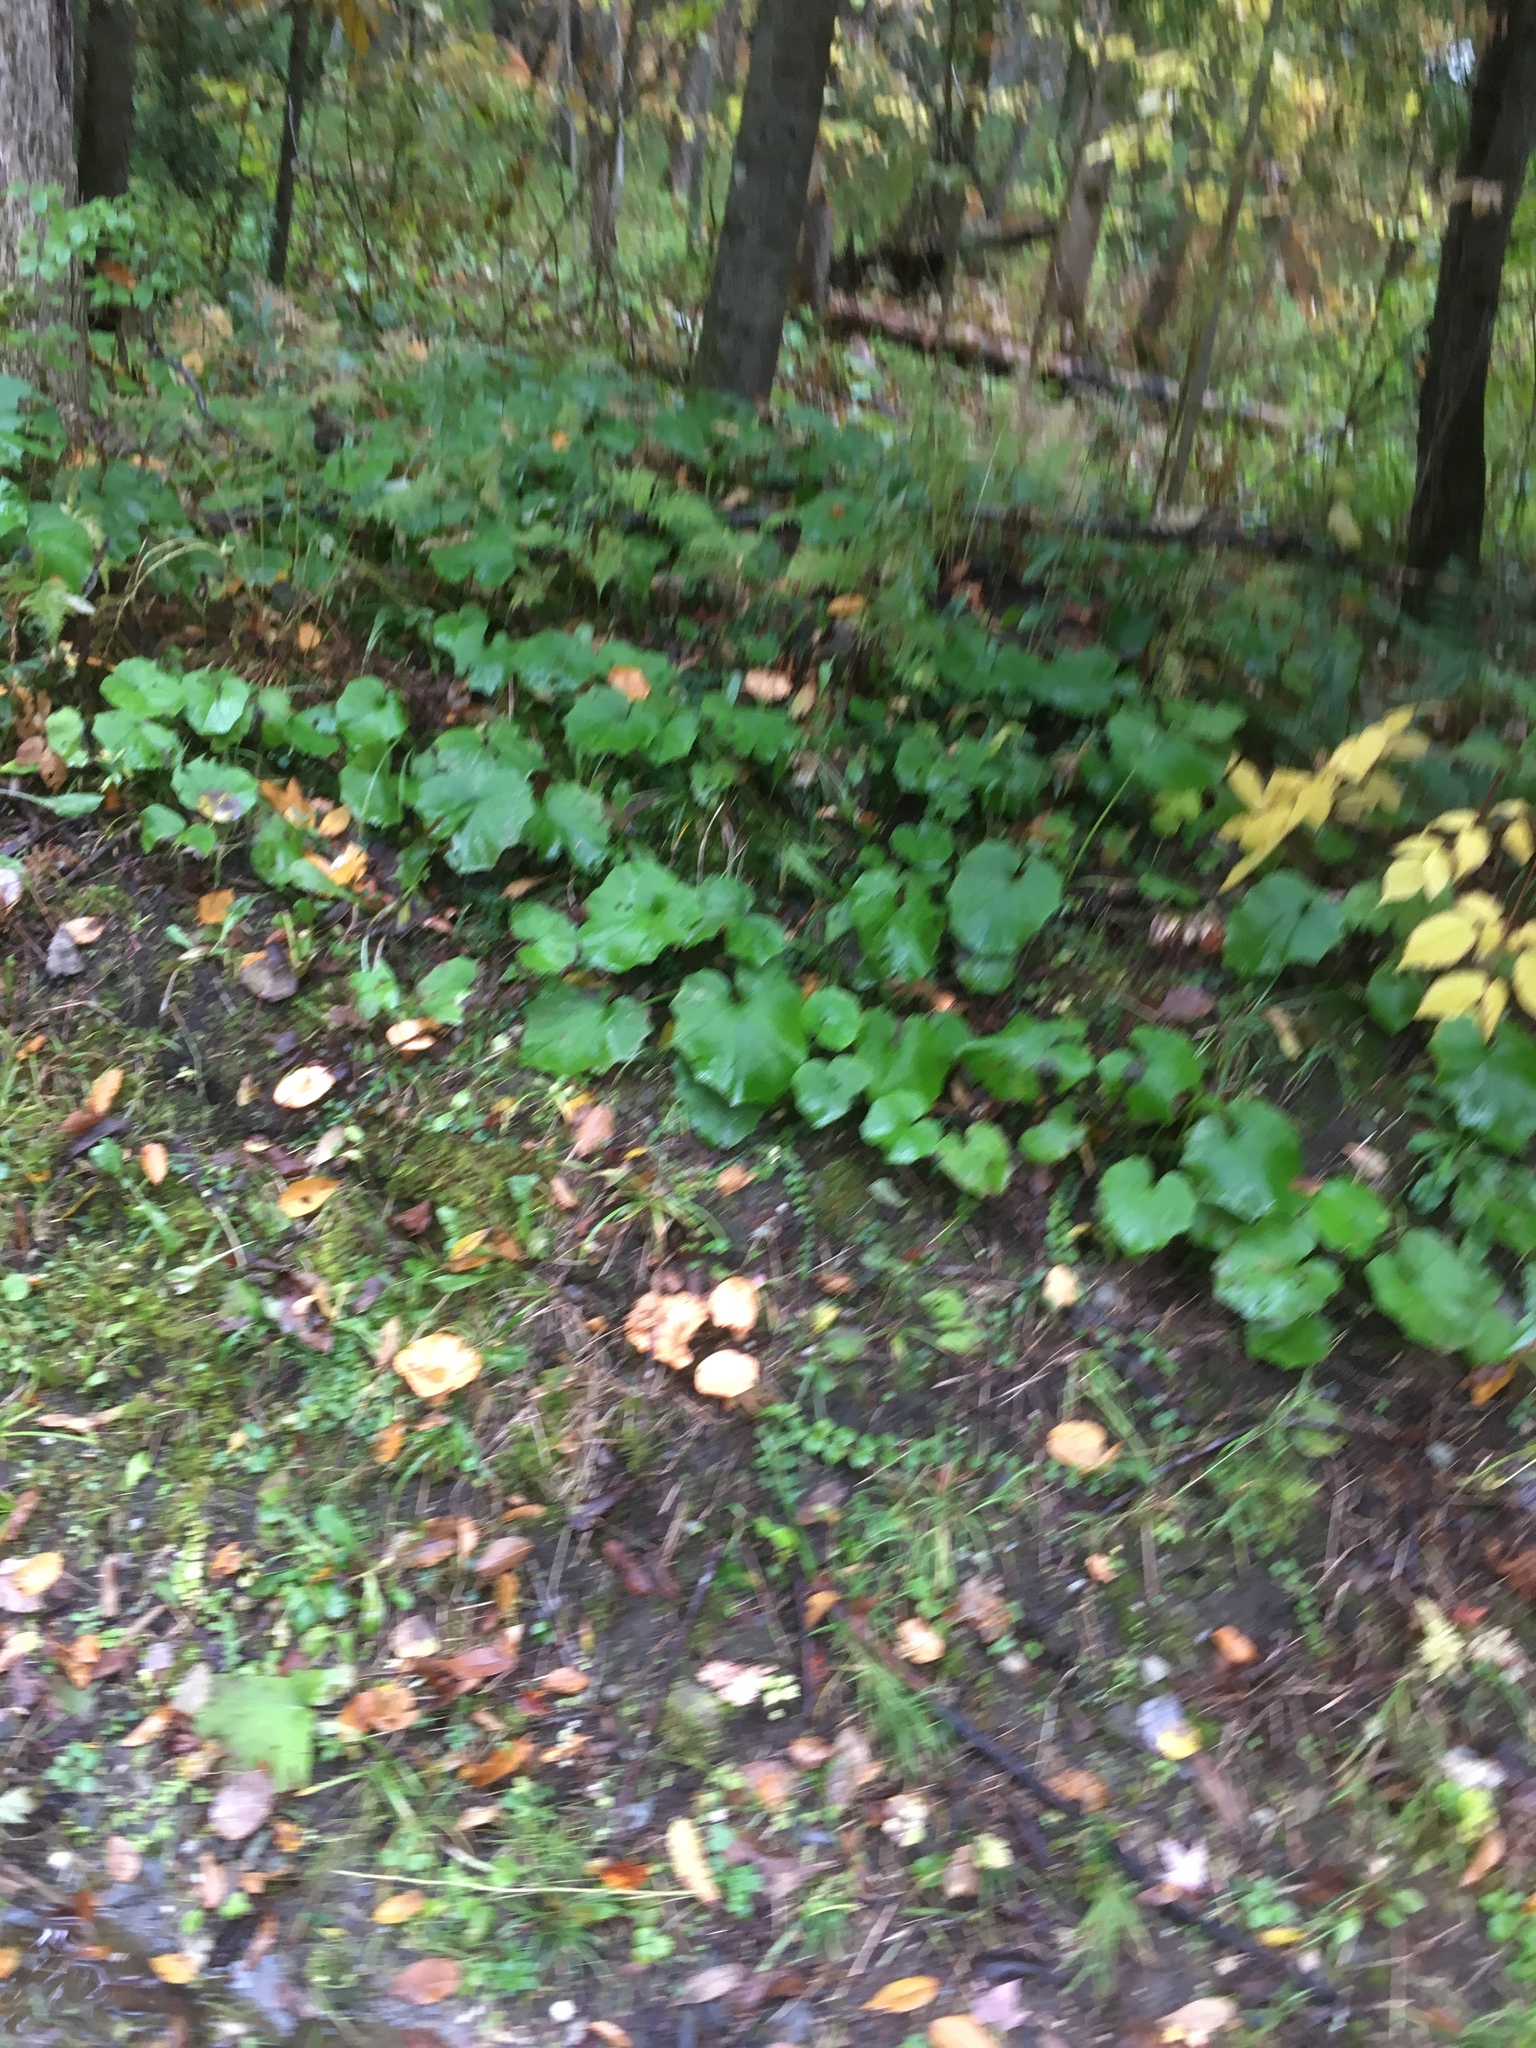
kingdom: Plantae
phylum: Tracheophyta
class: Magnoliopsida
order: Asterales
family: Asteraceae
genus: Tussilago
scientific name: Tussilago farfara
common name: Coltsfoot
